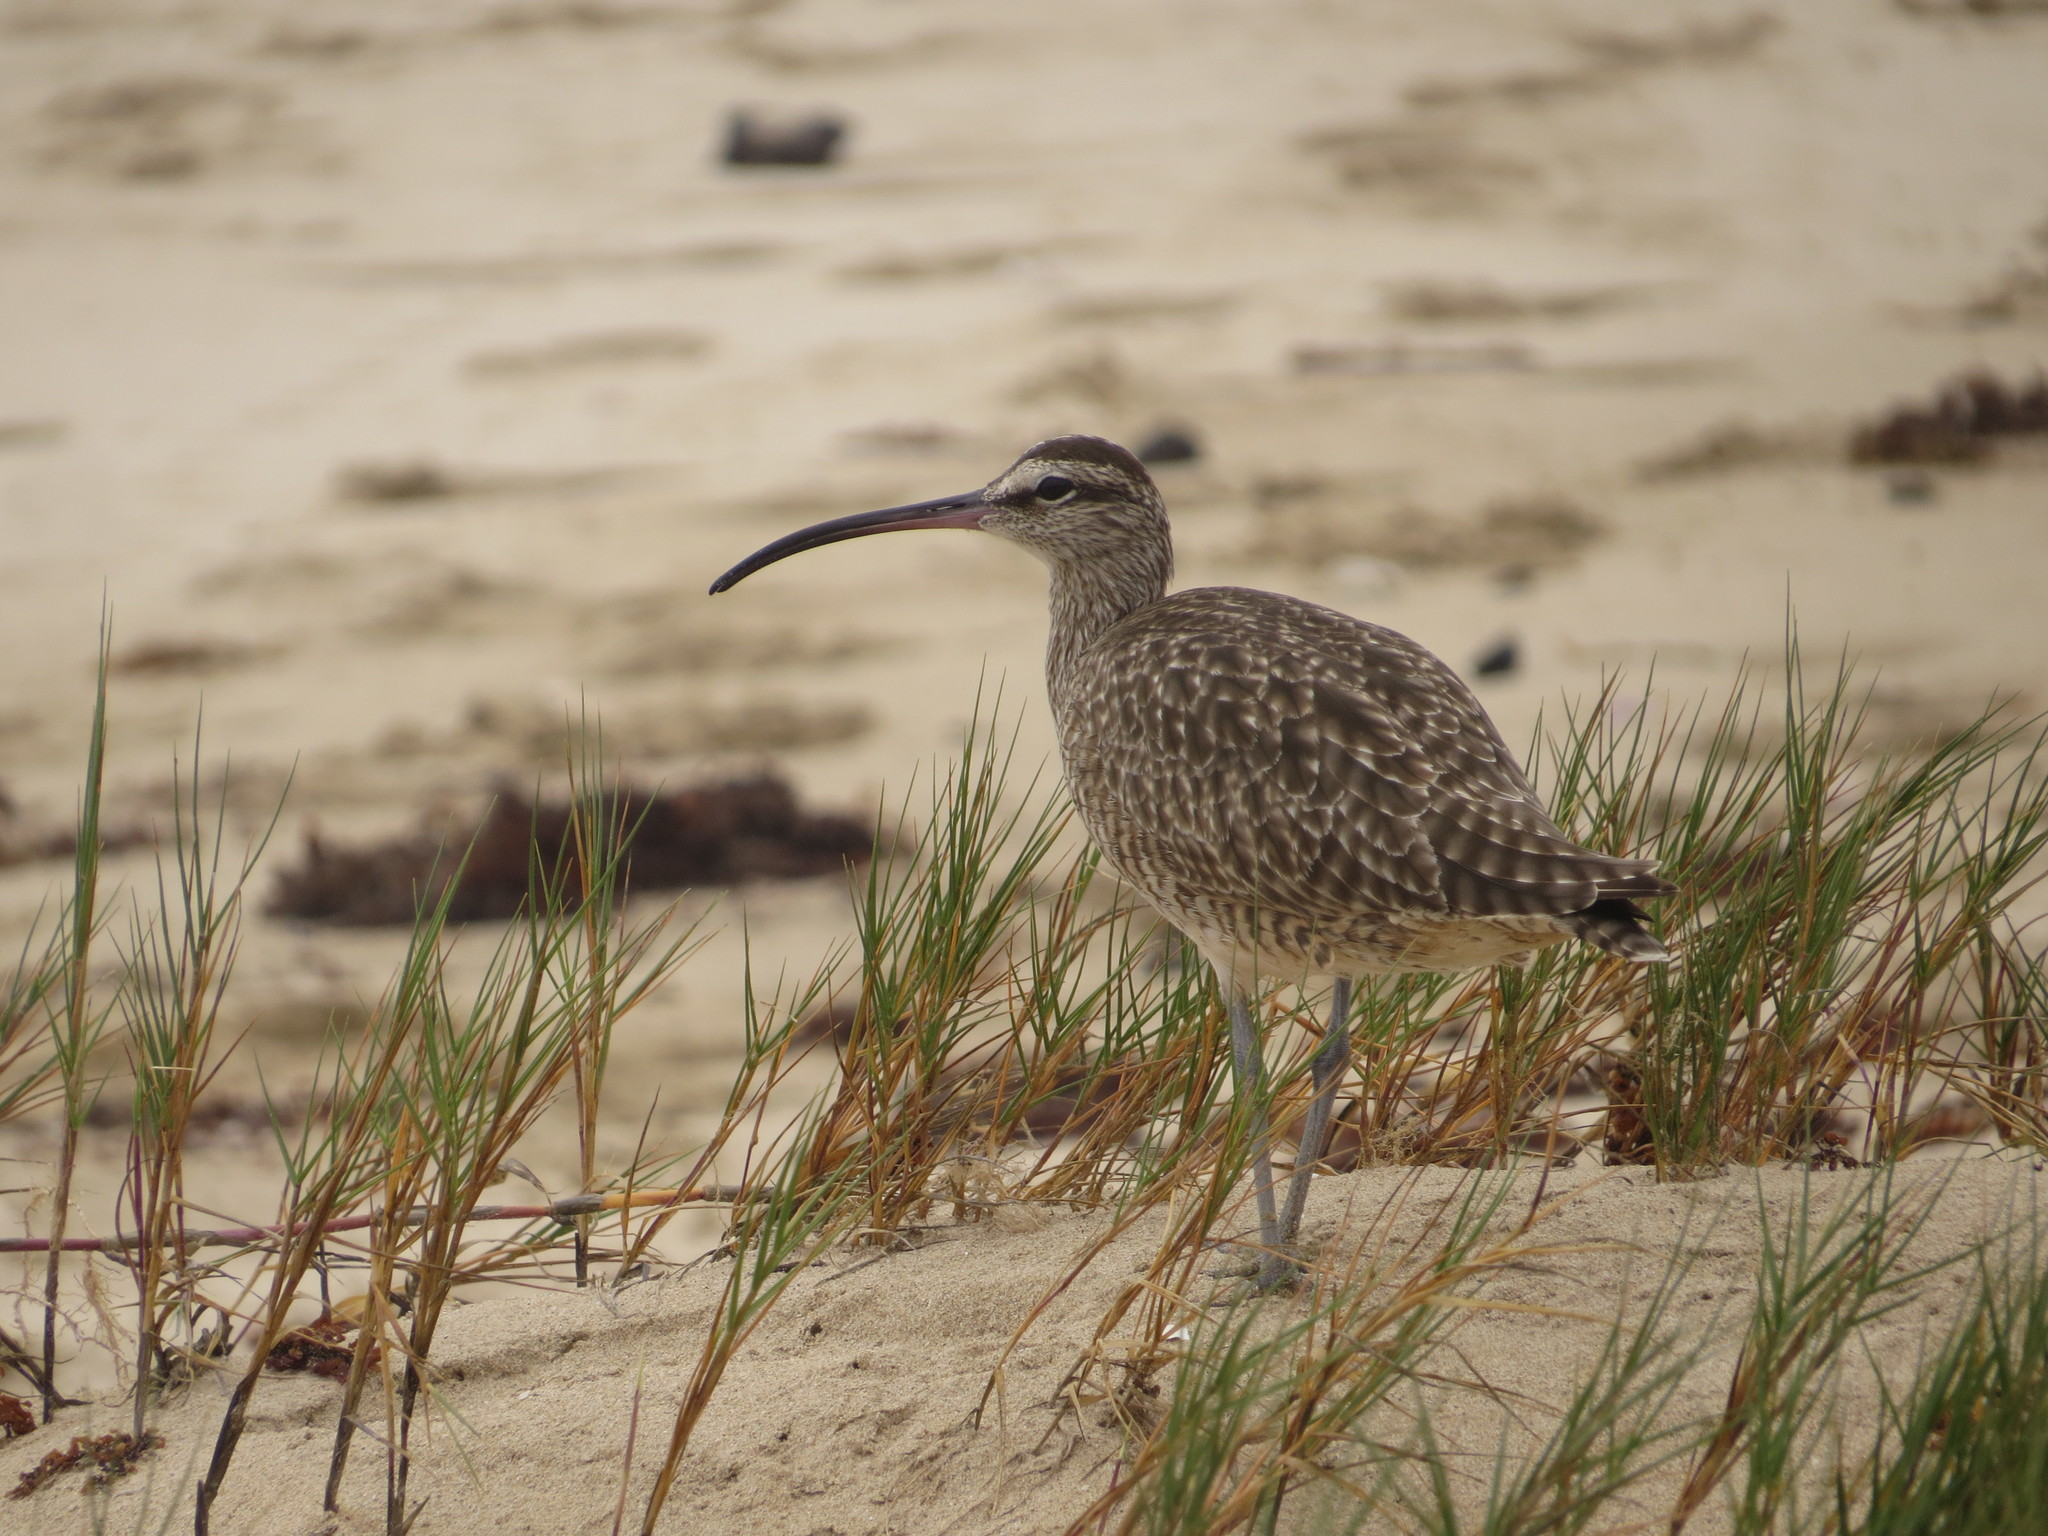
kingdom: Animalia
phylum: Chordata
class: Aves
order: Charadriiformes
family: Scolopacidae
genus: Numenius
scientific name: Numenius phaeopus
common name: Whimbrel
